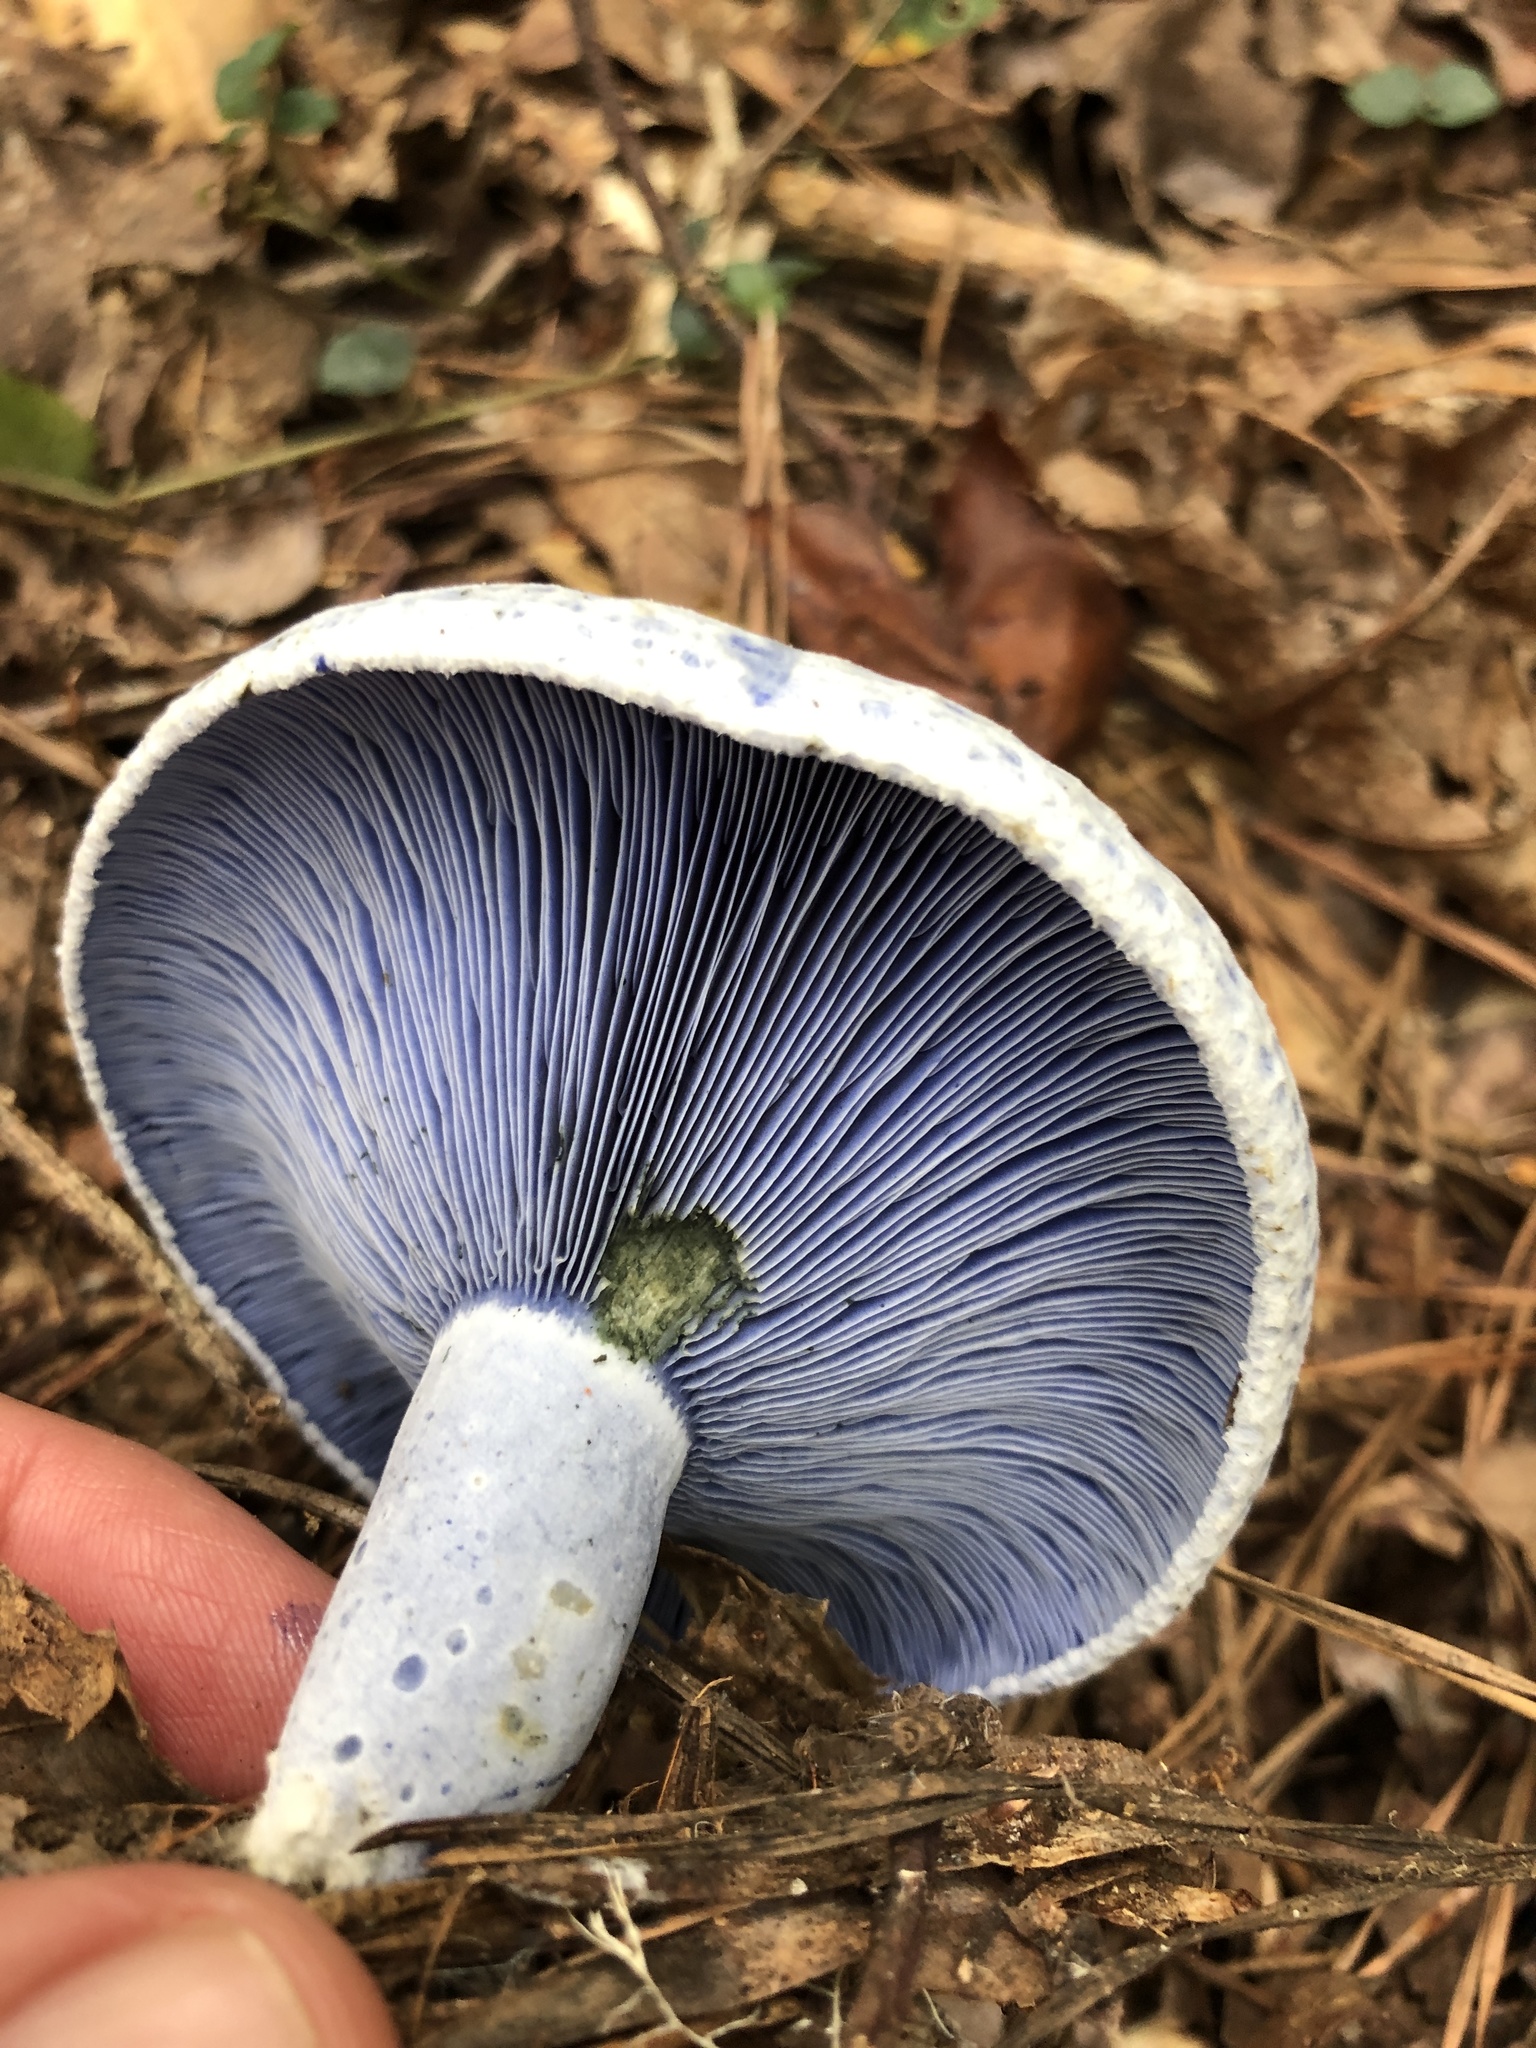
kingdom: Fungi
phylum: Basidiomycota
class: Agaricomycetes
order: Russulales
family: Russulaceae
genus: Lactarius
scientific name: Lactarius indigo
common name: Indigo milk cap
